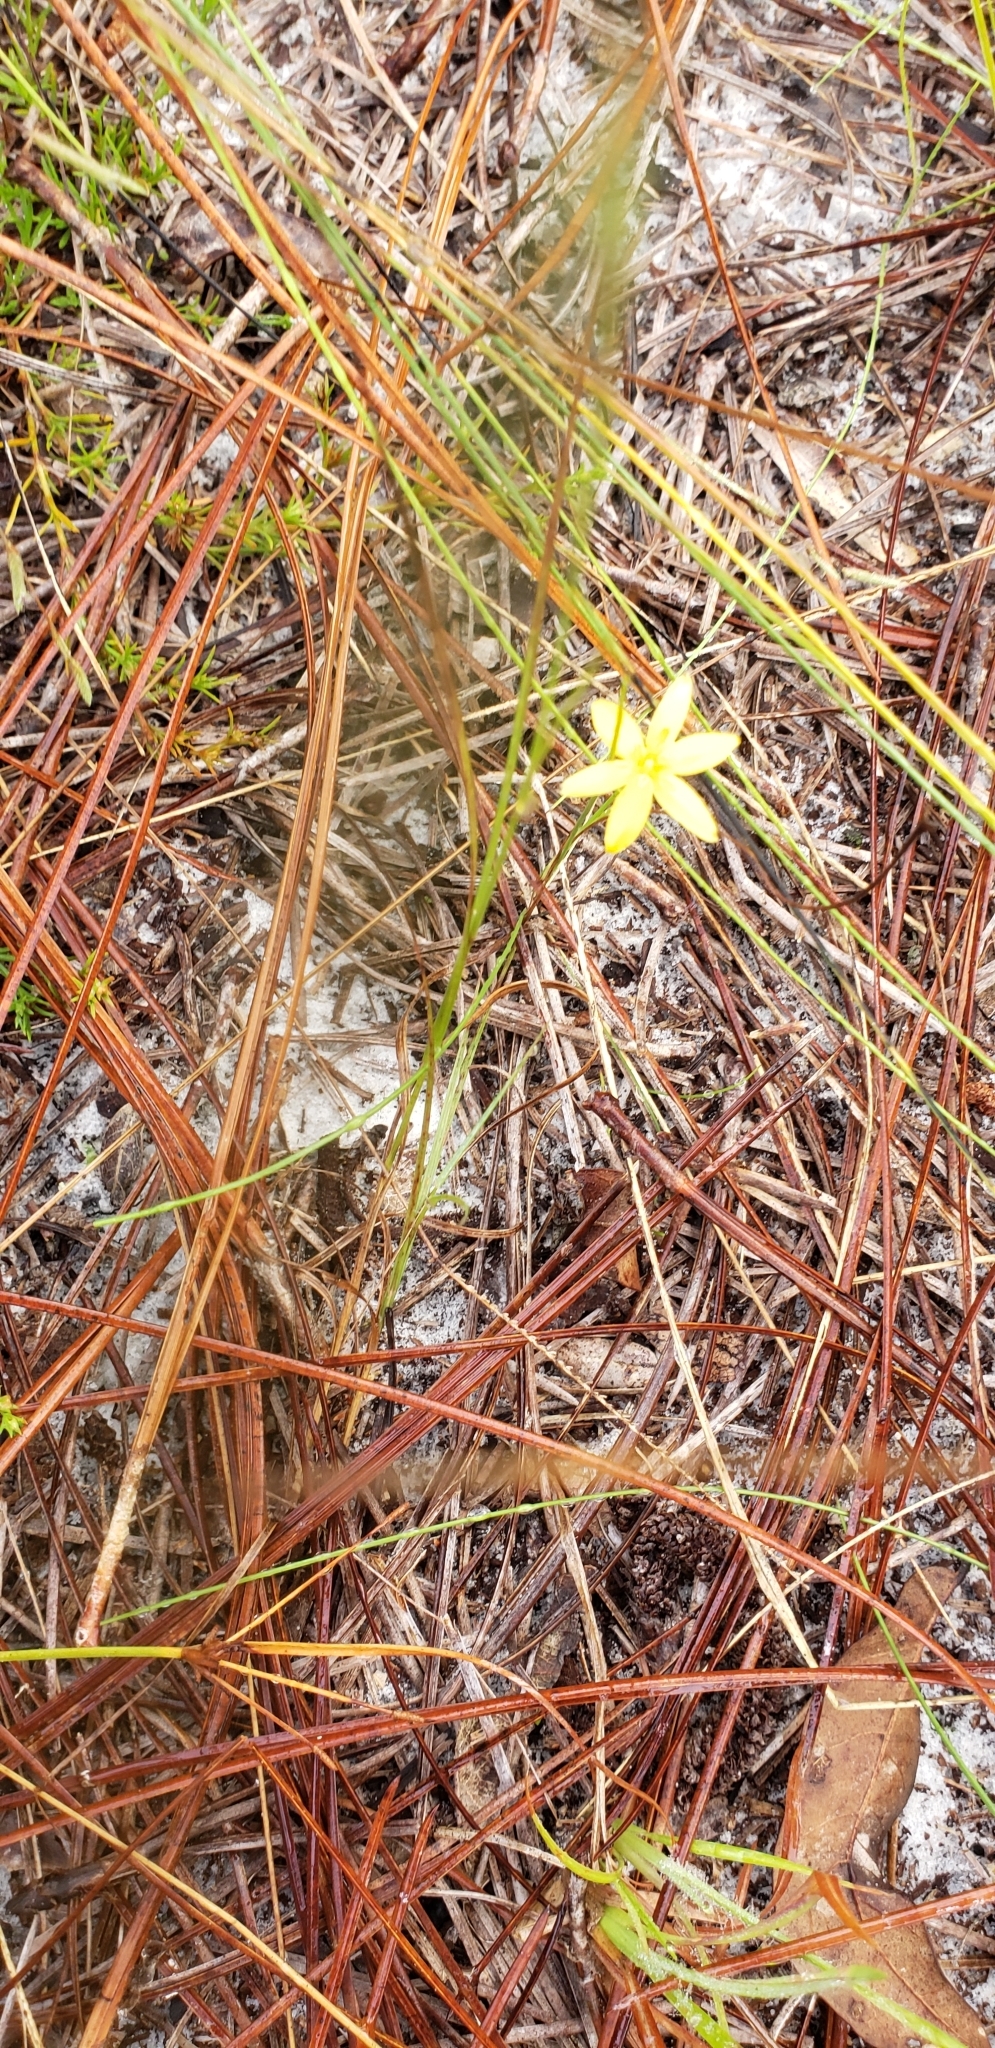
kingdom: Plantae
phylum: Tracheophyta
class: Liliopsida
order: Asparagales
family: Hypoxidaceae
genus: Hypoxis
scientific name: Hypoxis juncea
